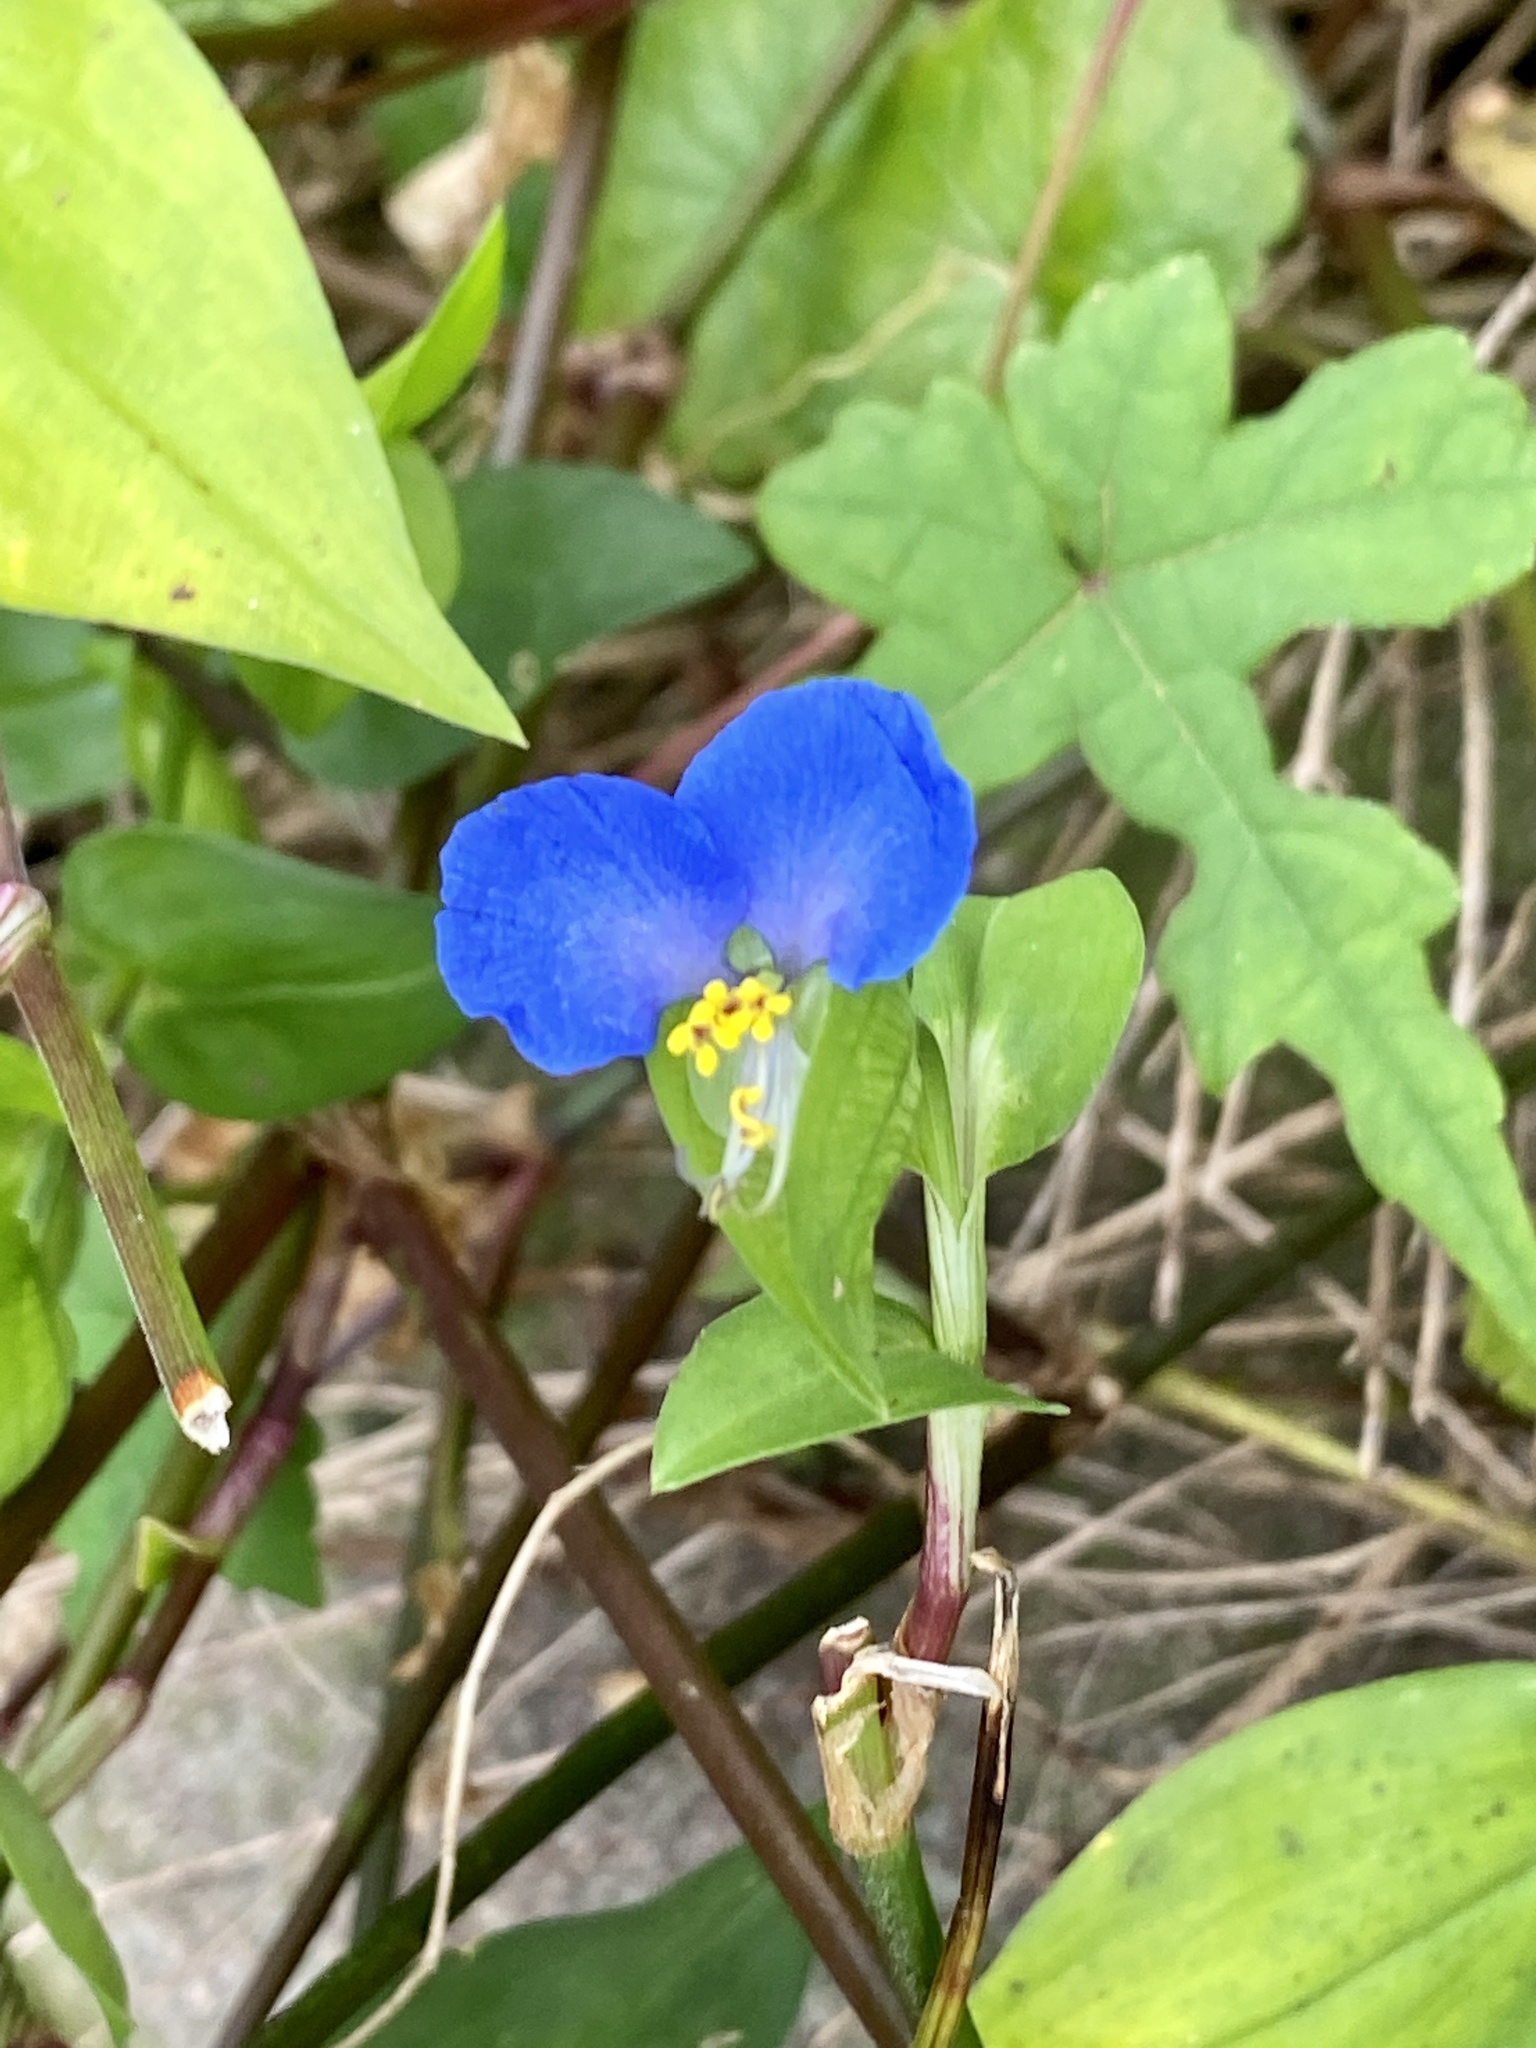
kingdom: Plantae
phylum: Tracheophyta
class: Liliopsida
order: Commelinales
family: Commelinaceae
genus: Commelina
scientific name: Commelina communis
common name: Asiatic dayflower
